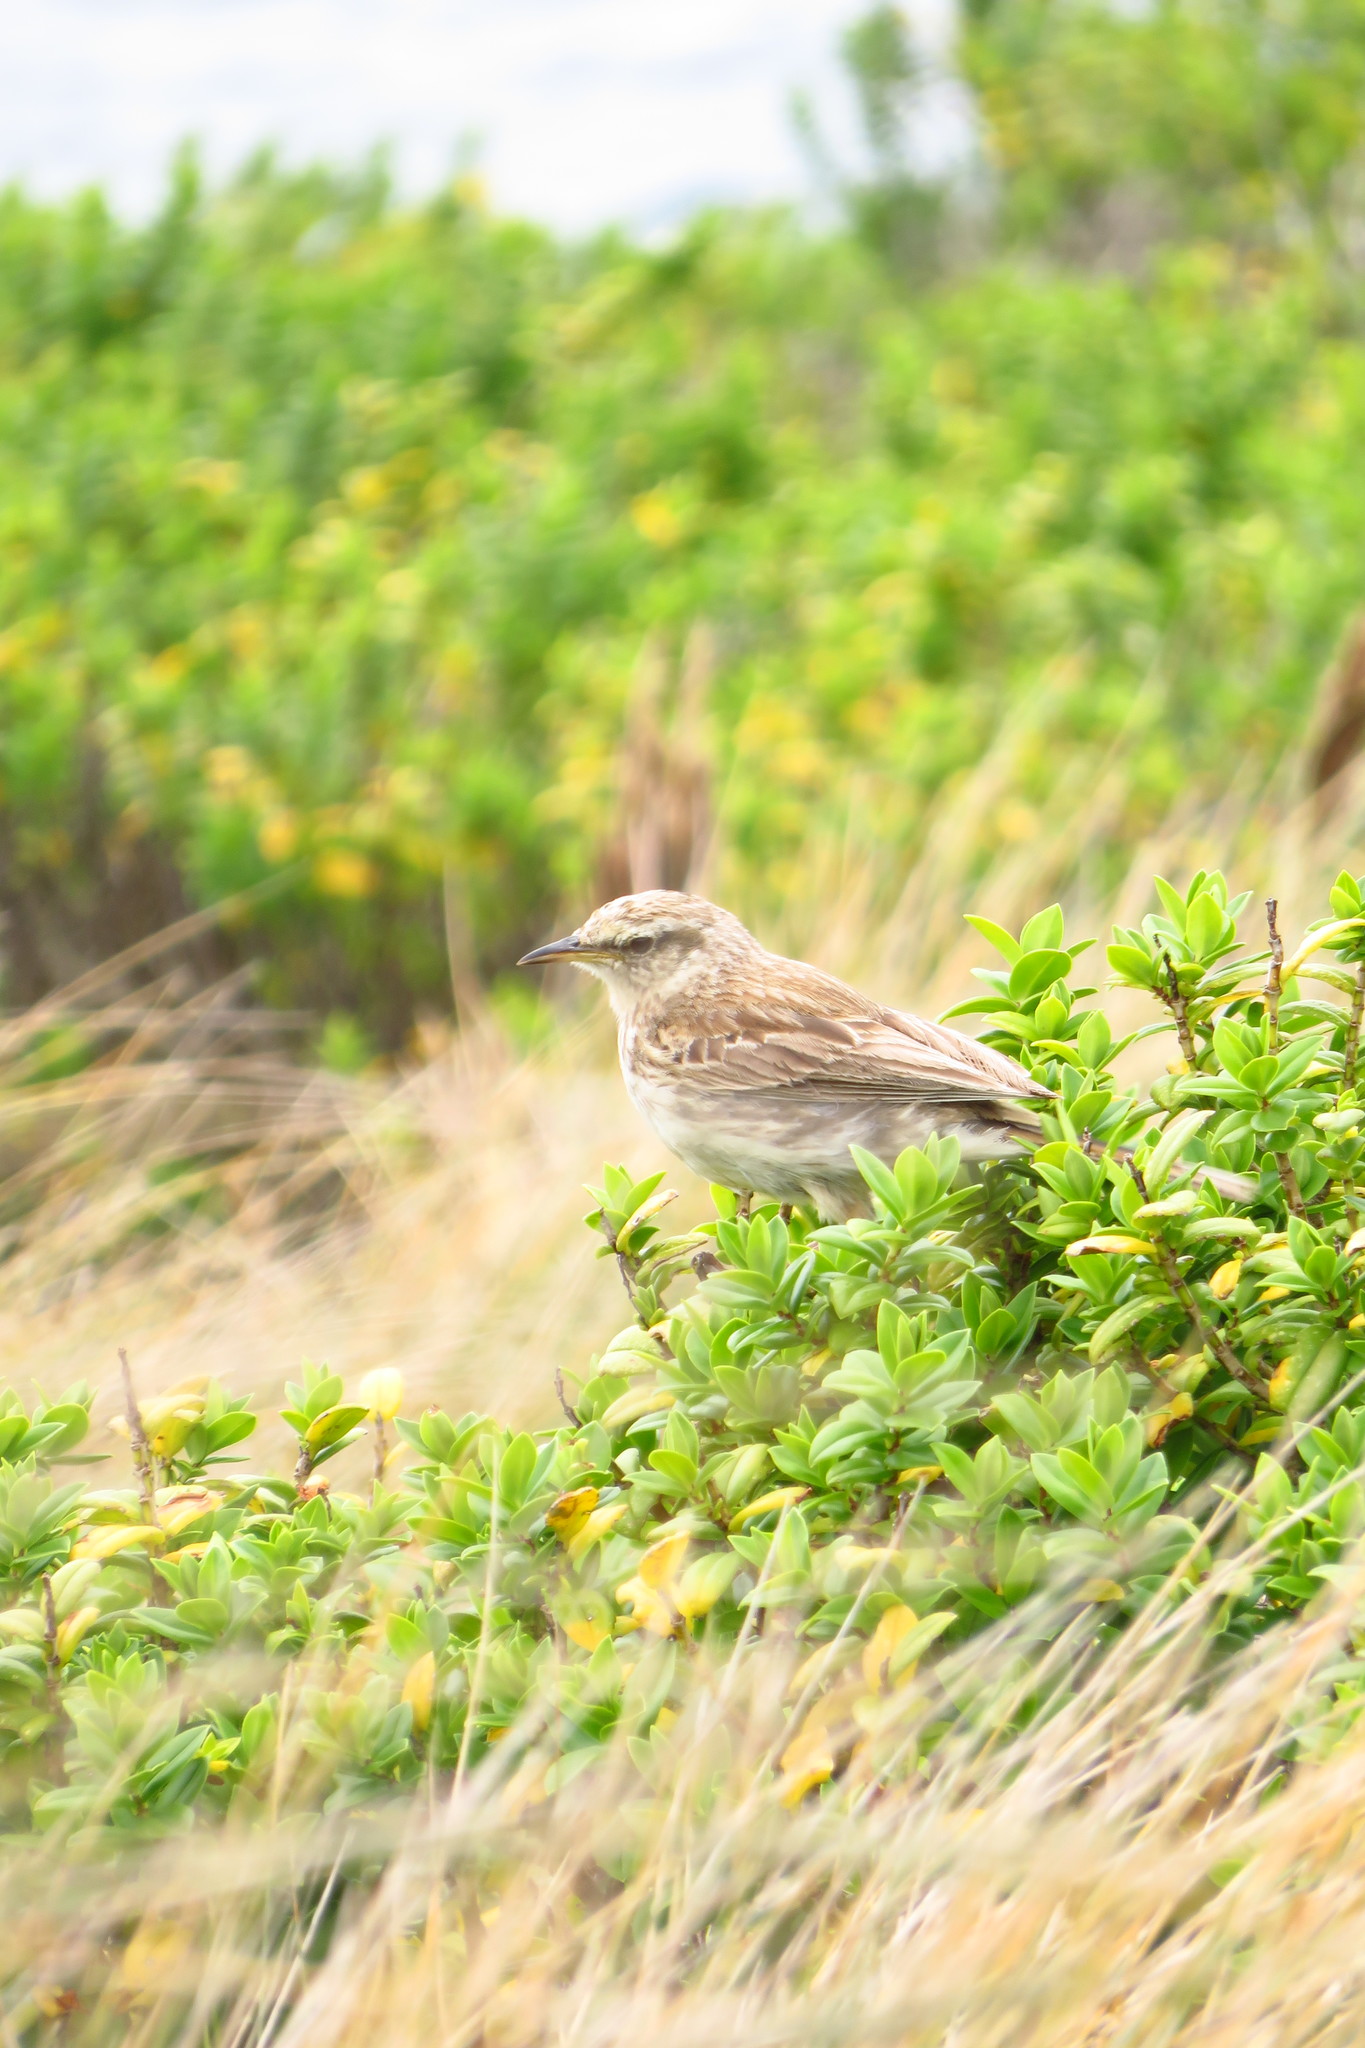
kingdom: Animalia
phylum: Chordata
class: Aves
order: Passeriformes
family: Motacillidae
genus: Anthus
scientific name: Anthus novaeseelandiae
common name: New zealand pipit
